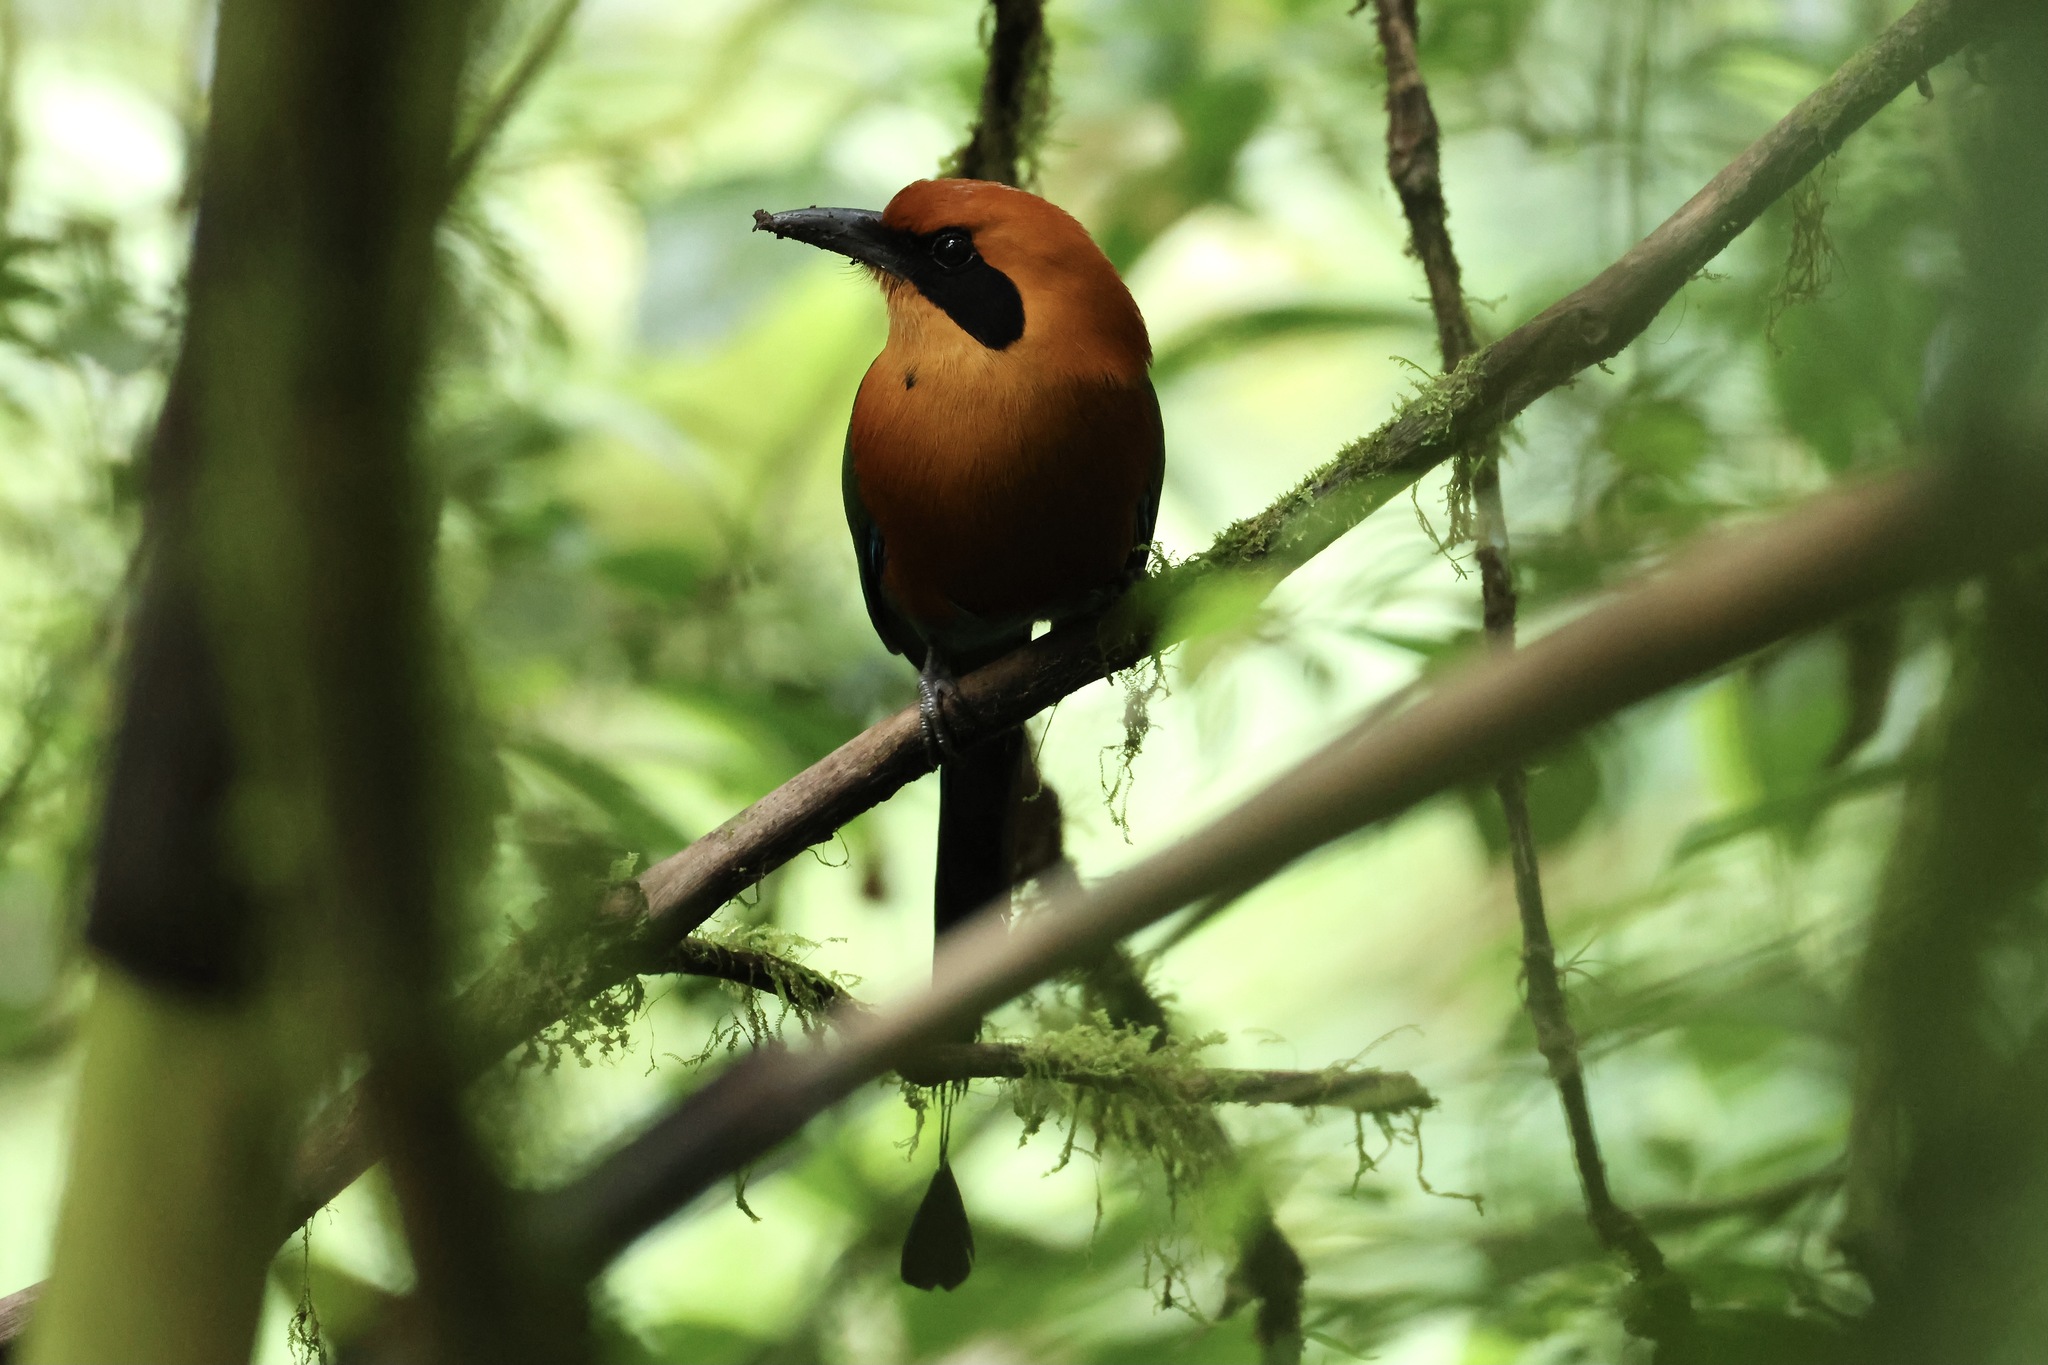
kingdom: Animalia
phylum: Chordata
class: Aves
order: Coraciiformes
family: Momotidae
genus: Baryphthengus
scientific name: Baryphthengus martii
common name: Rufous motmot
